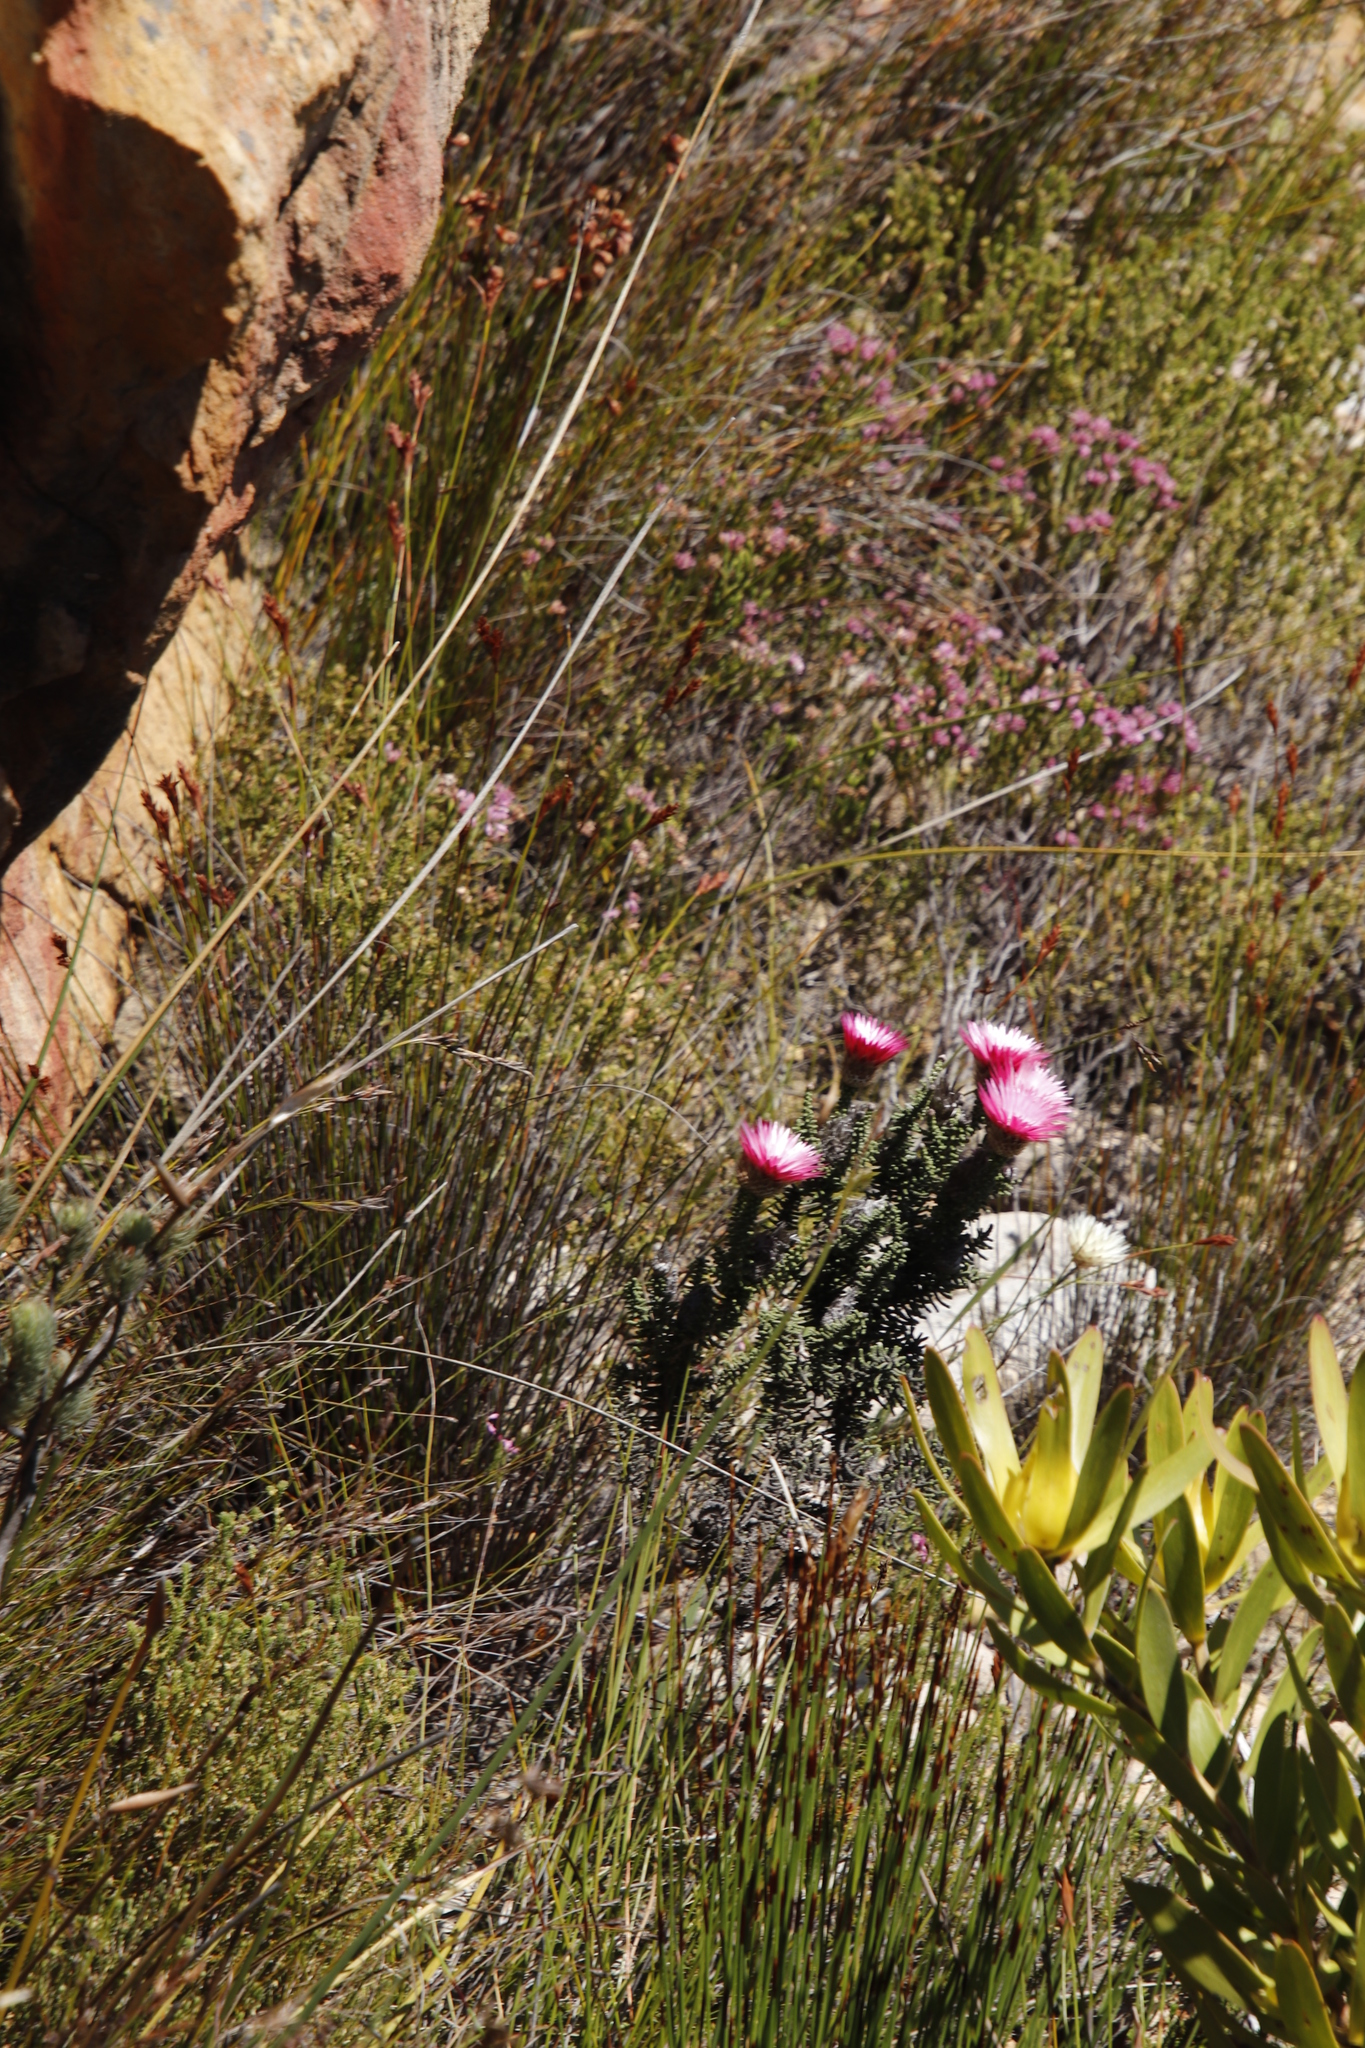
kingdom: Plantae
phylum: Tracheophyta
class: Magnoliopsida
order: Asterales
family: Asteraceae
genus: Phaenocoma
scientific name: Phaenocoma prolifera
